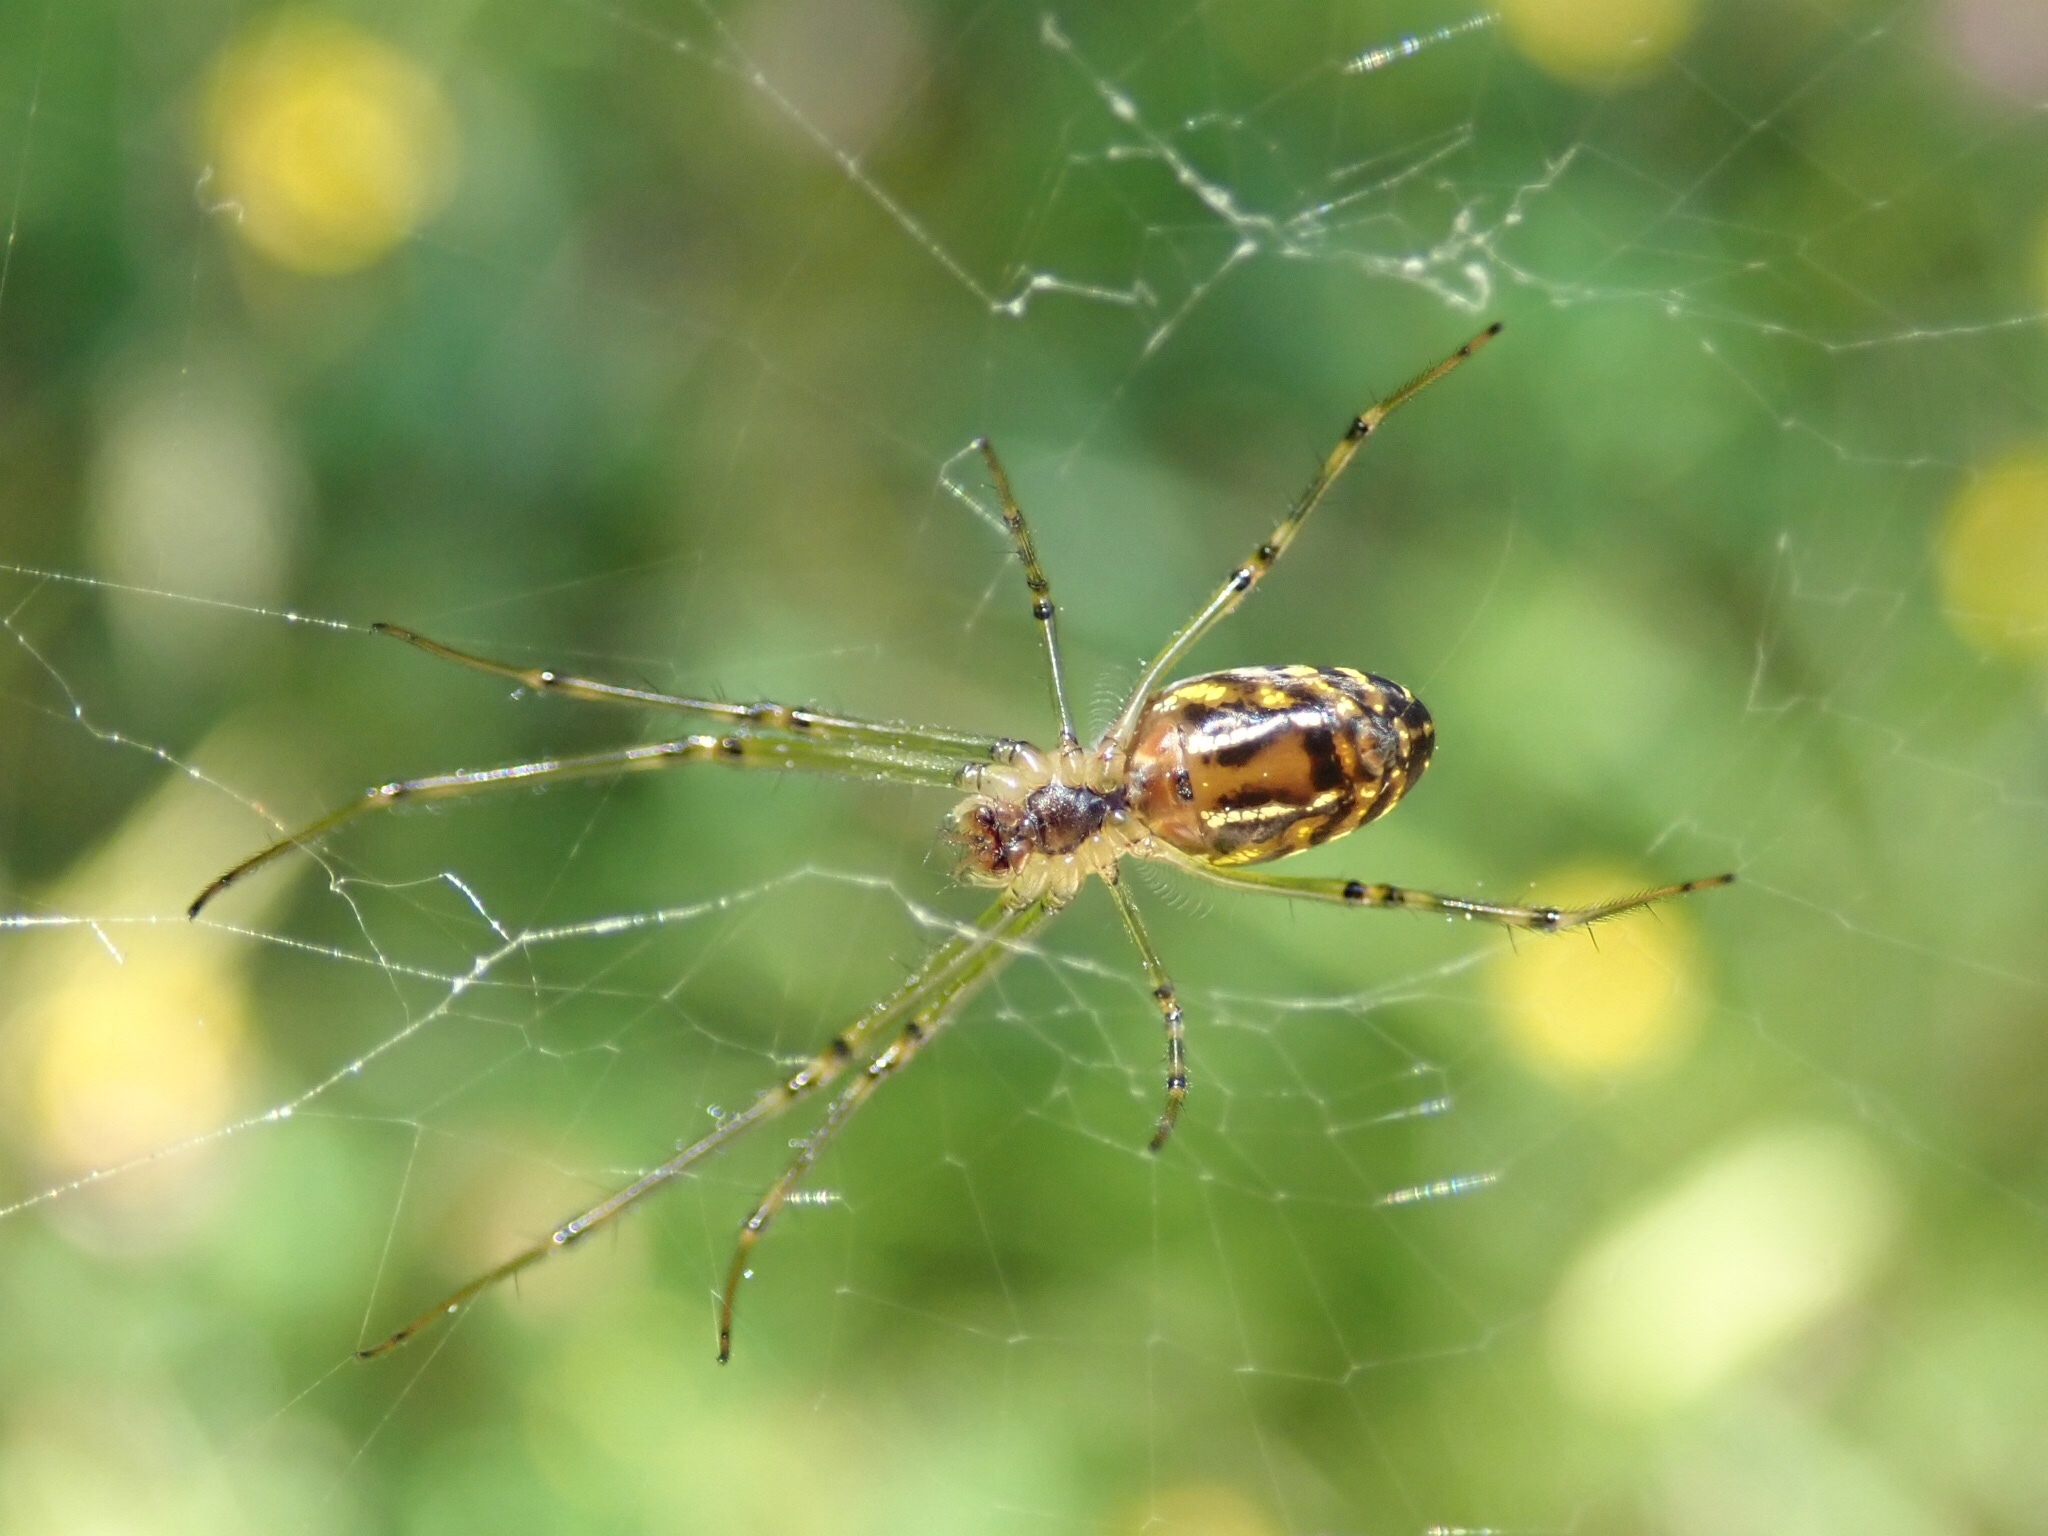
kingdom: Animalia
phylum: Arthropoda
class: Arachnida
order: Araneae
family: Tetragnathidae
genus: Leucauge
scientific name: Leucauge dromedaria
